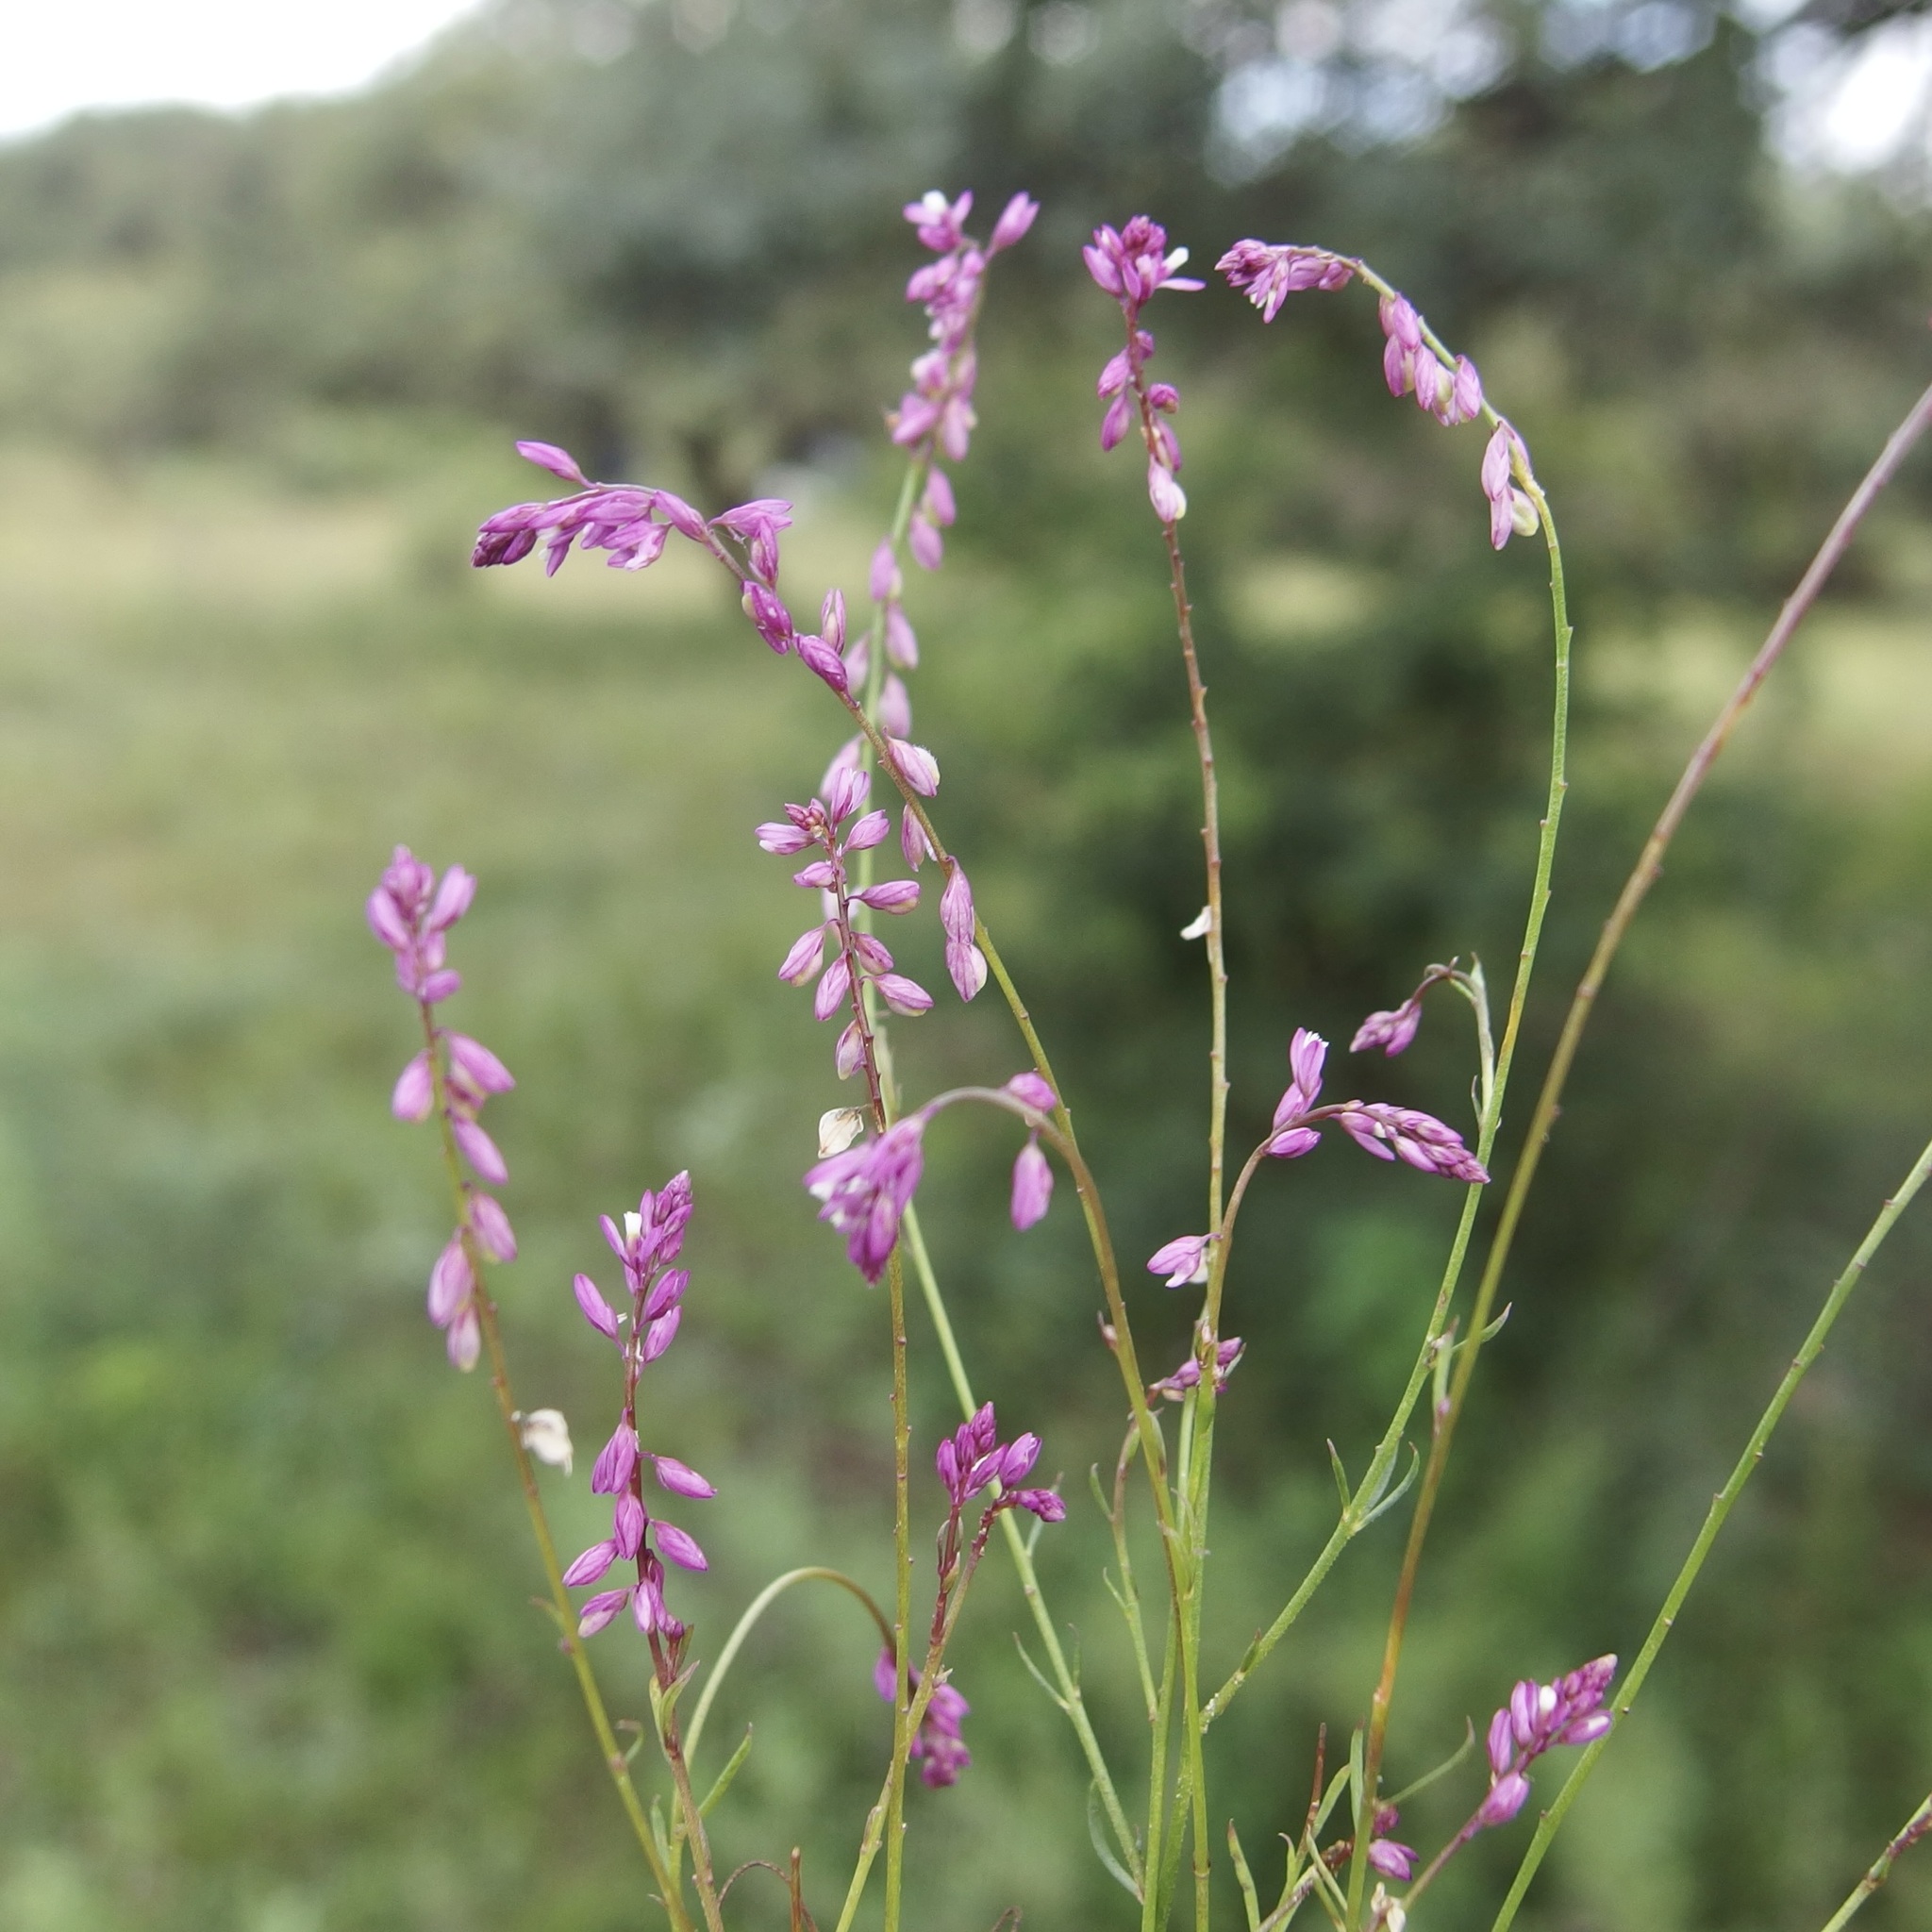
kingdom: Plantae
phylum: Tracheophyta
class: Magnoliopsida
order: Fabales
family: Polygalaceae
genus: Polygala
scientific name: Polygala glochidiata
